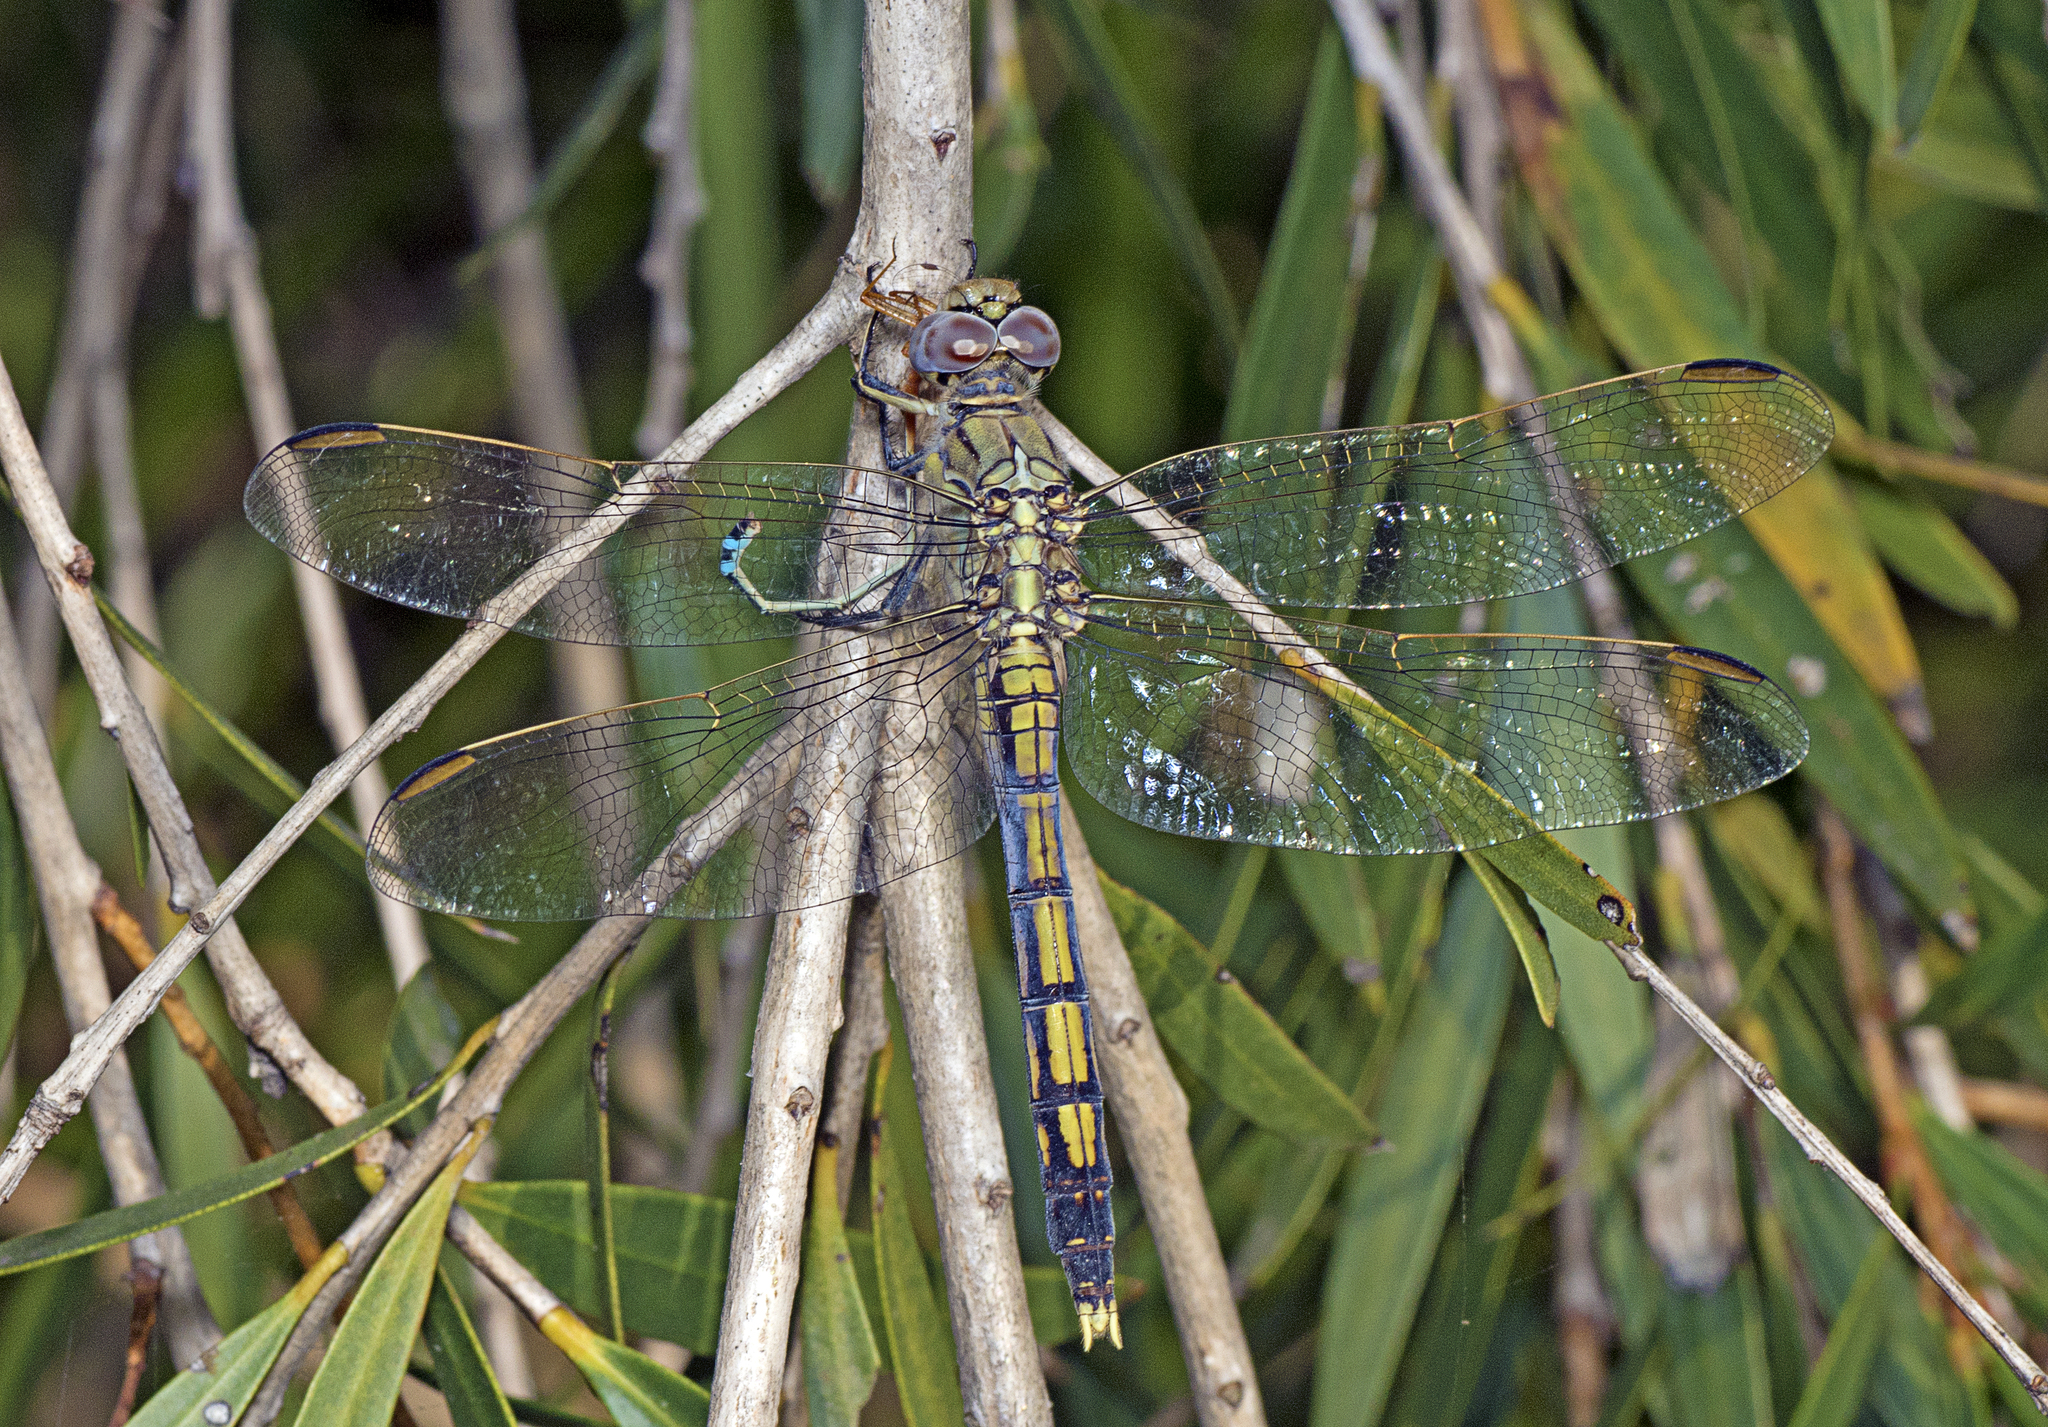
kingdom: Animalia
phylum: Arthropoda
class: Insecta
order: Odonata
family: Libellulidae
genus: Orthetrum
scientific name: Orthetrum caledonicum
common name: Blue skimmer
